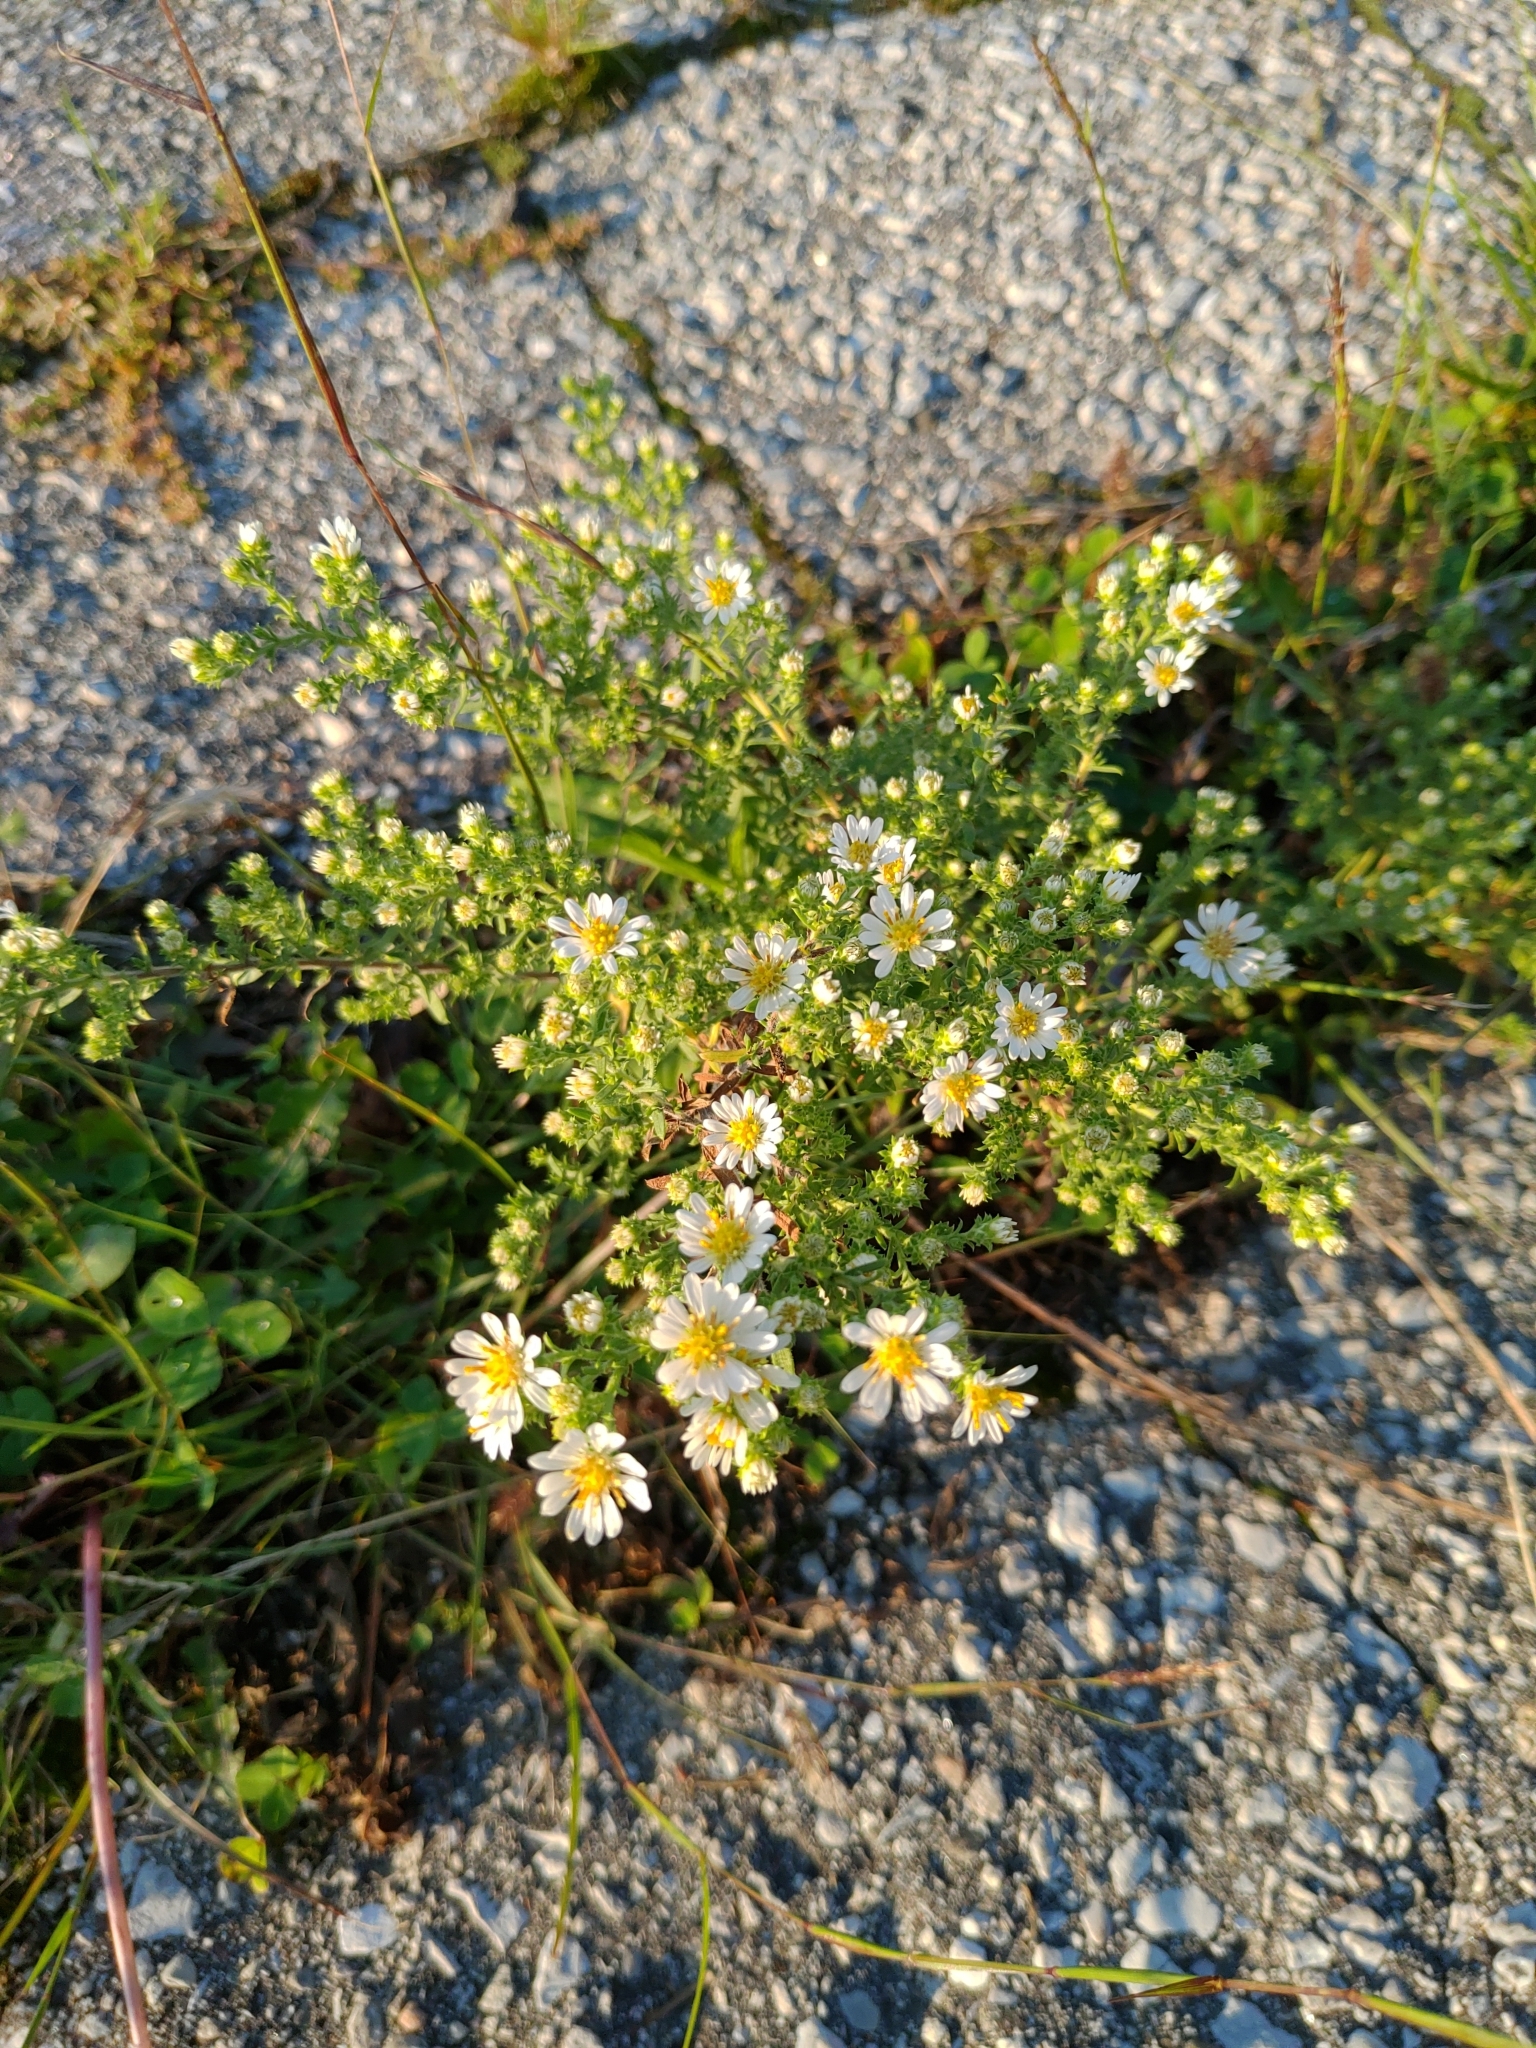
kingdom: Plantae
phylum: Tracheophyta
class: Magnoliopsida
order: Asterales
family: Asteraceae
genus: Symphyotrichum
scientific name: Symphyotrichum ericoides
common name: Heath aster
